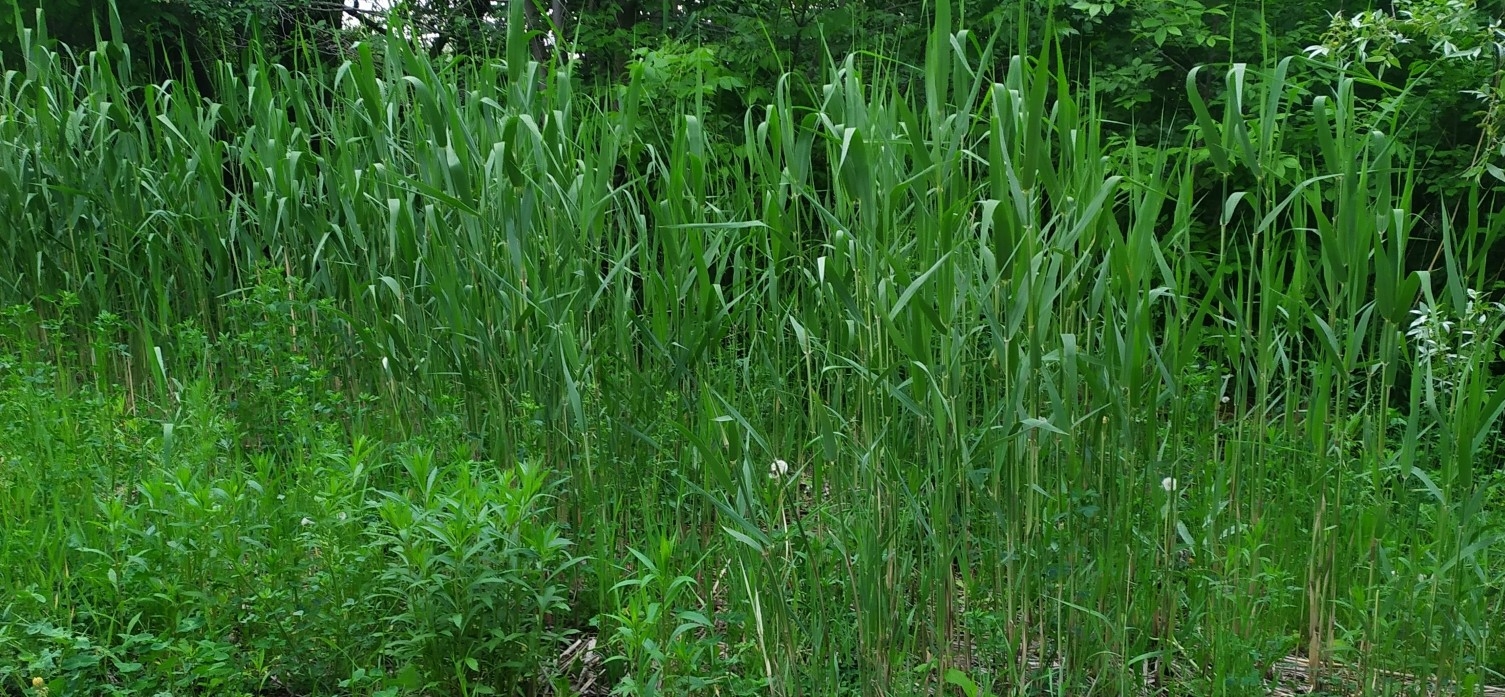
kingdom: Plantae
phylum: Tracheophyta
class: Liliopsida
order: Poales
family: Poaceae
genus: Phragmites
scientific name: Phragmites australis
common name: Common reed
